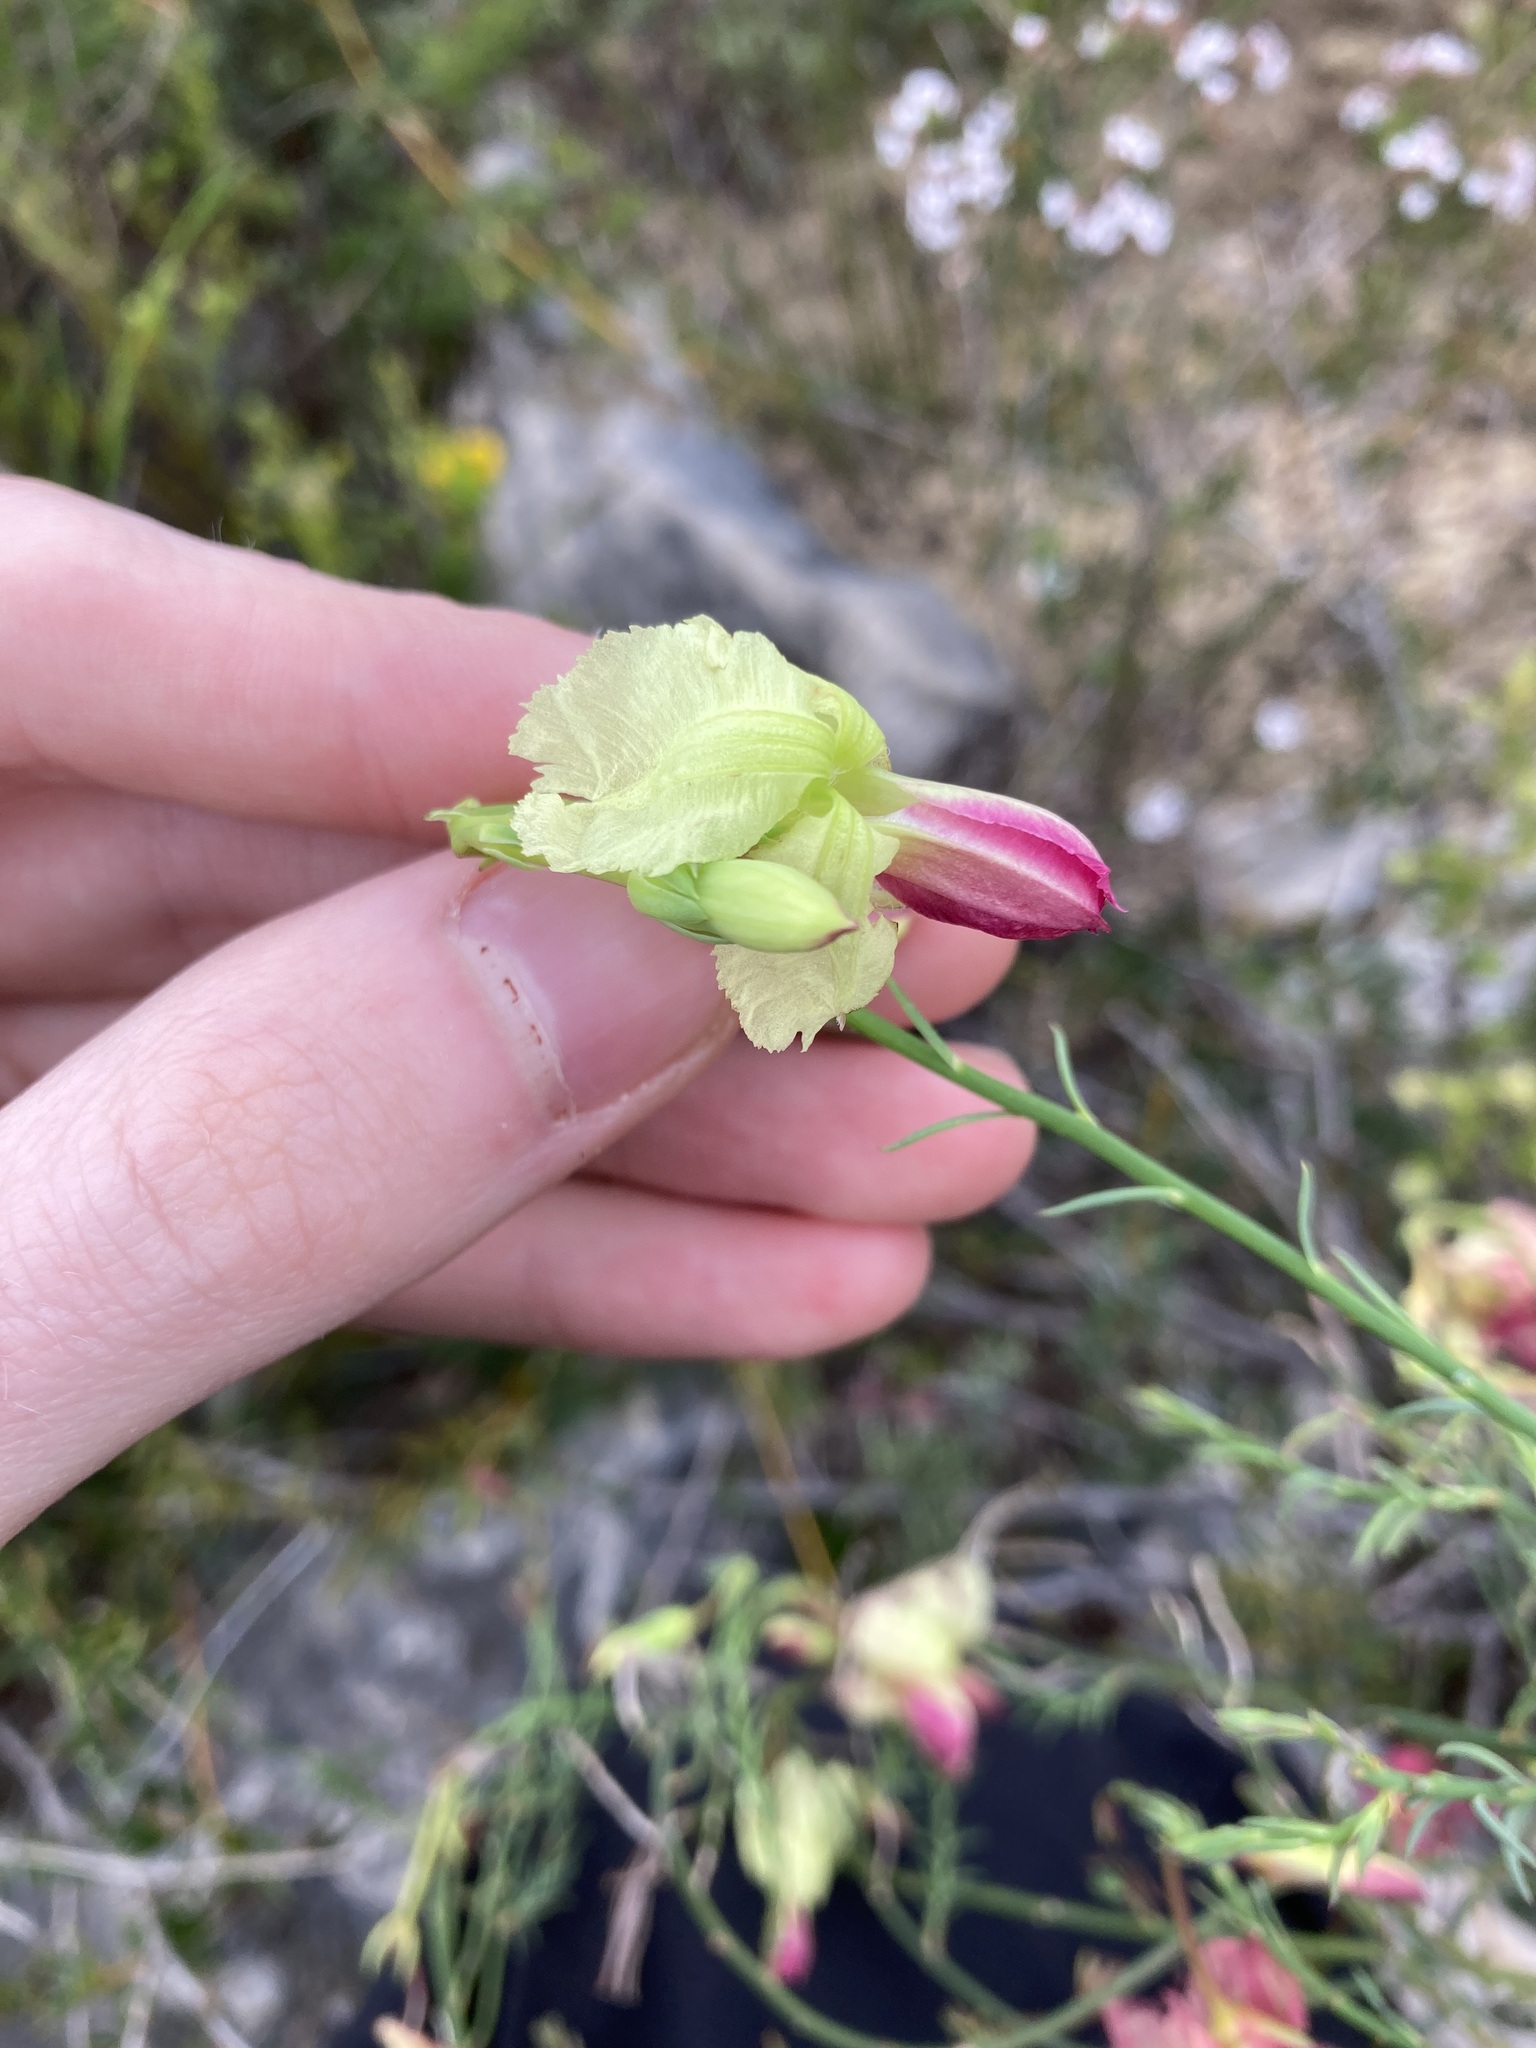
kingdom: Plantae
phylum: Tracheophyta
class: Magnoliopsida
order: Asterales
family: Goodeniaceae
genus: Lechenaultia
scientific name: Lechenaultia linarioides
